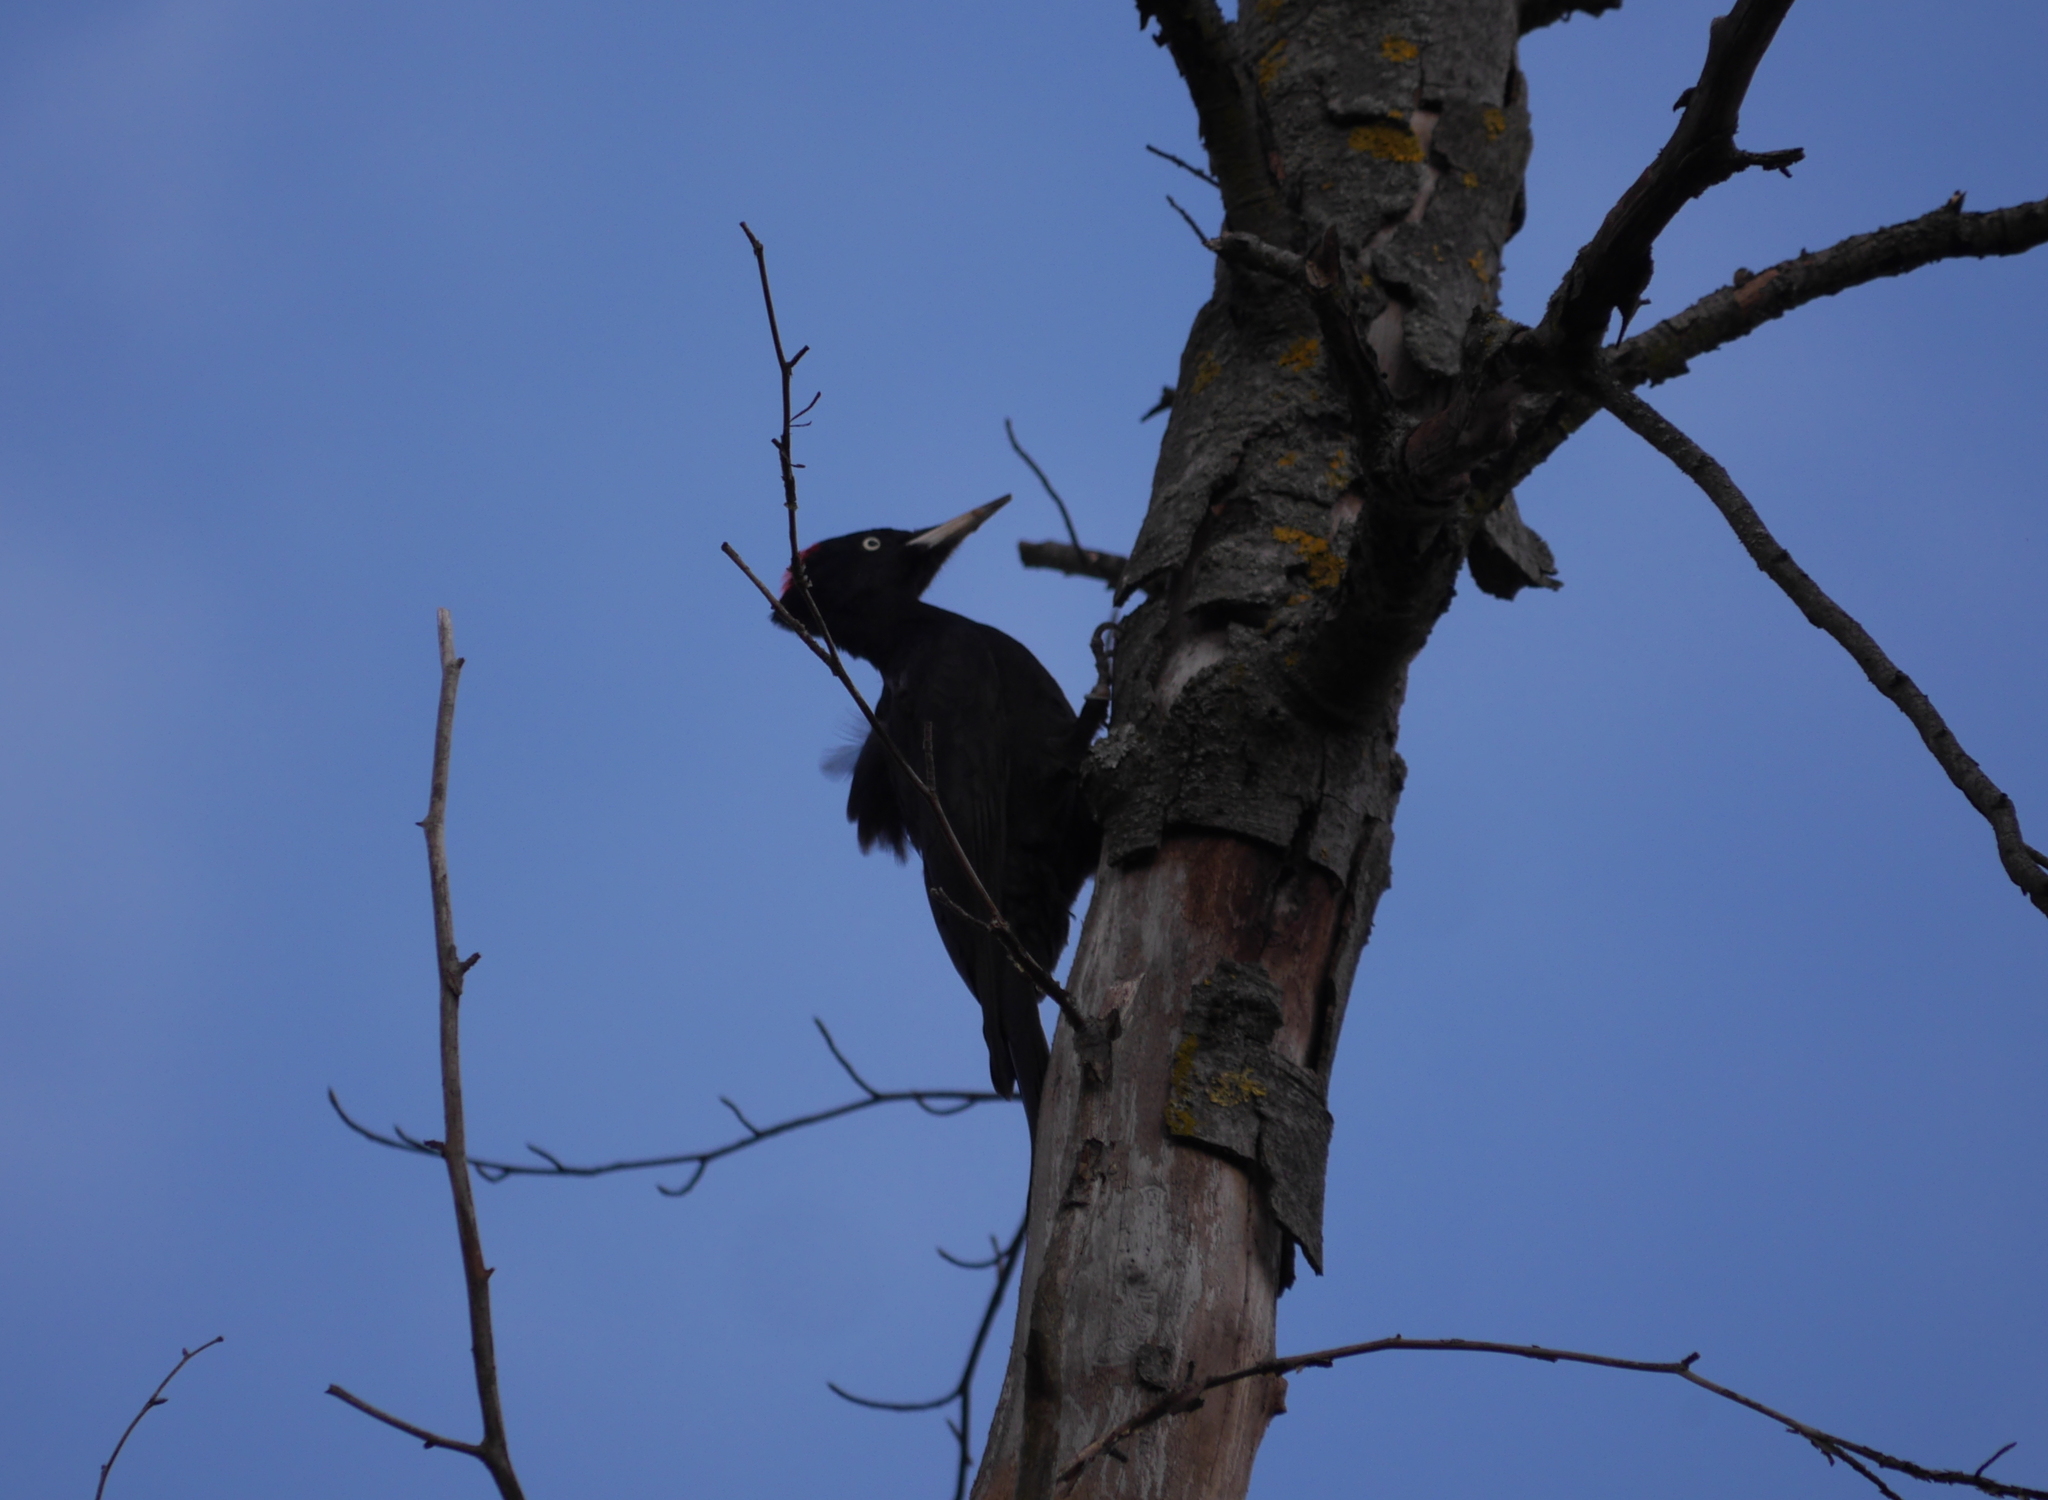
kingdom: Animalia
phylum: Chordata
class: Aves
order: Piciformes
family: Picidae
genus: Dryocopus
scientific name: Dryocopus martius
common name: Black woodpecker
